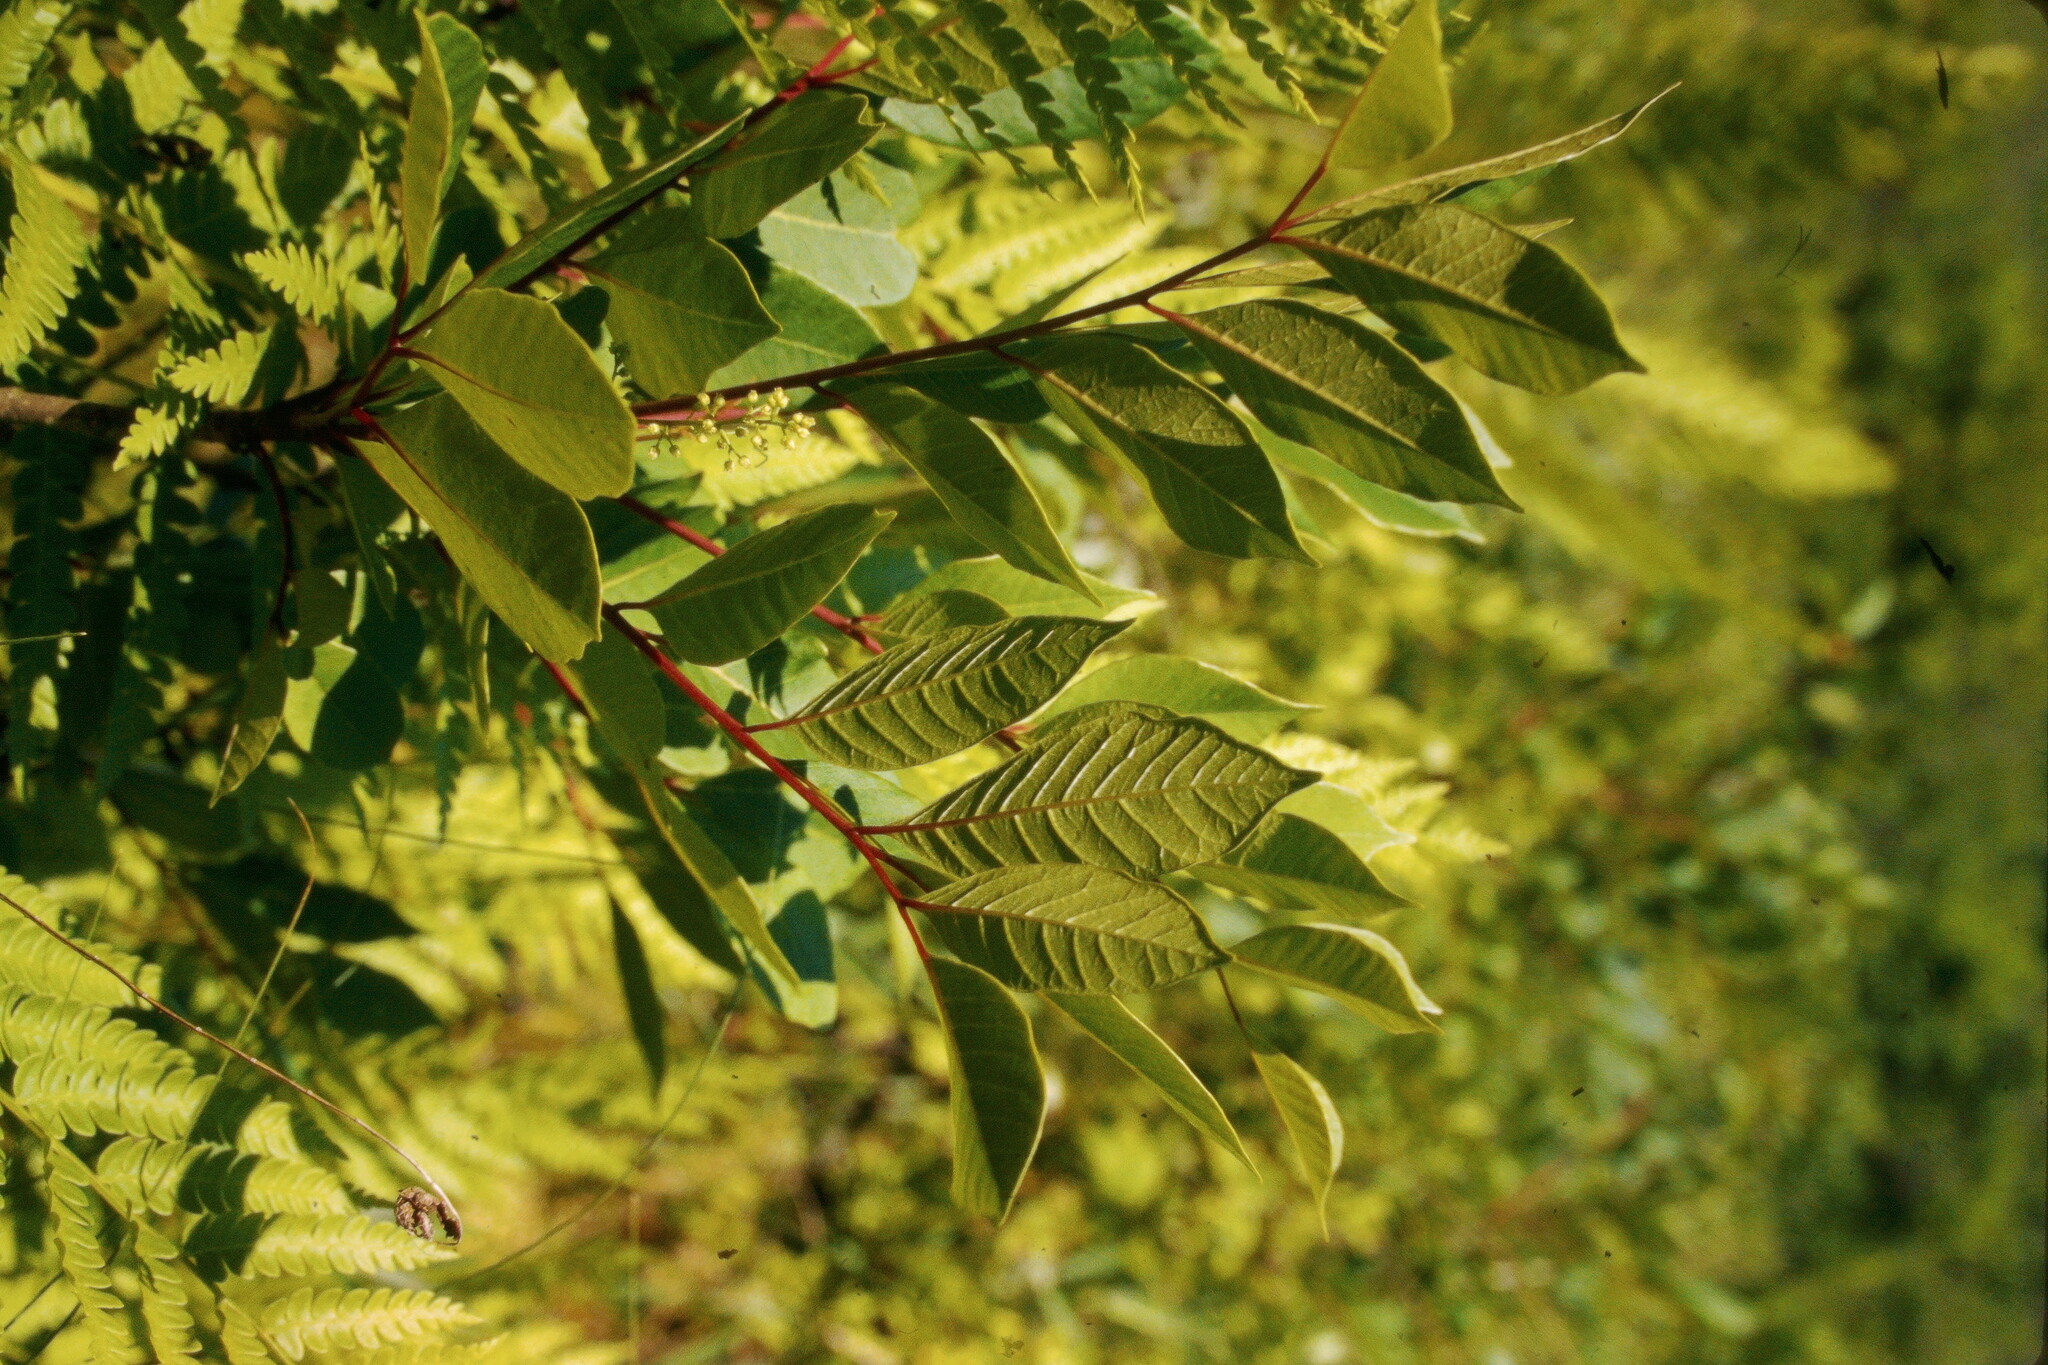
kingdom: Plantae
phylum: Tracheophyta
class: Magnoliopsida
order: Sapindales
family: Anacardiaceae
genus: Toxicodendron
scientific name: Toxicodendron vernix
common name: Poison sumac
